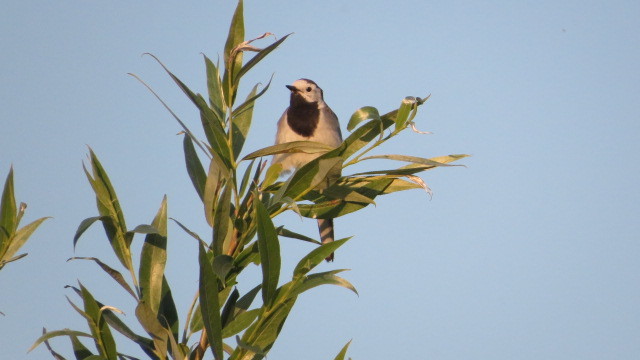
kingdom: Animalia
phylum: Chordata
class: Aves
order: Passeriformes
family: Motacillidae
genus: Motacilla
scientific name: Motacilla alba
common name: White wagtail
